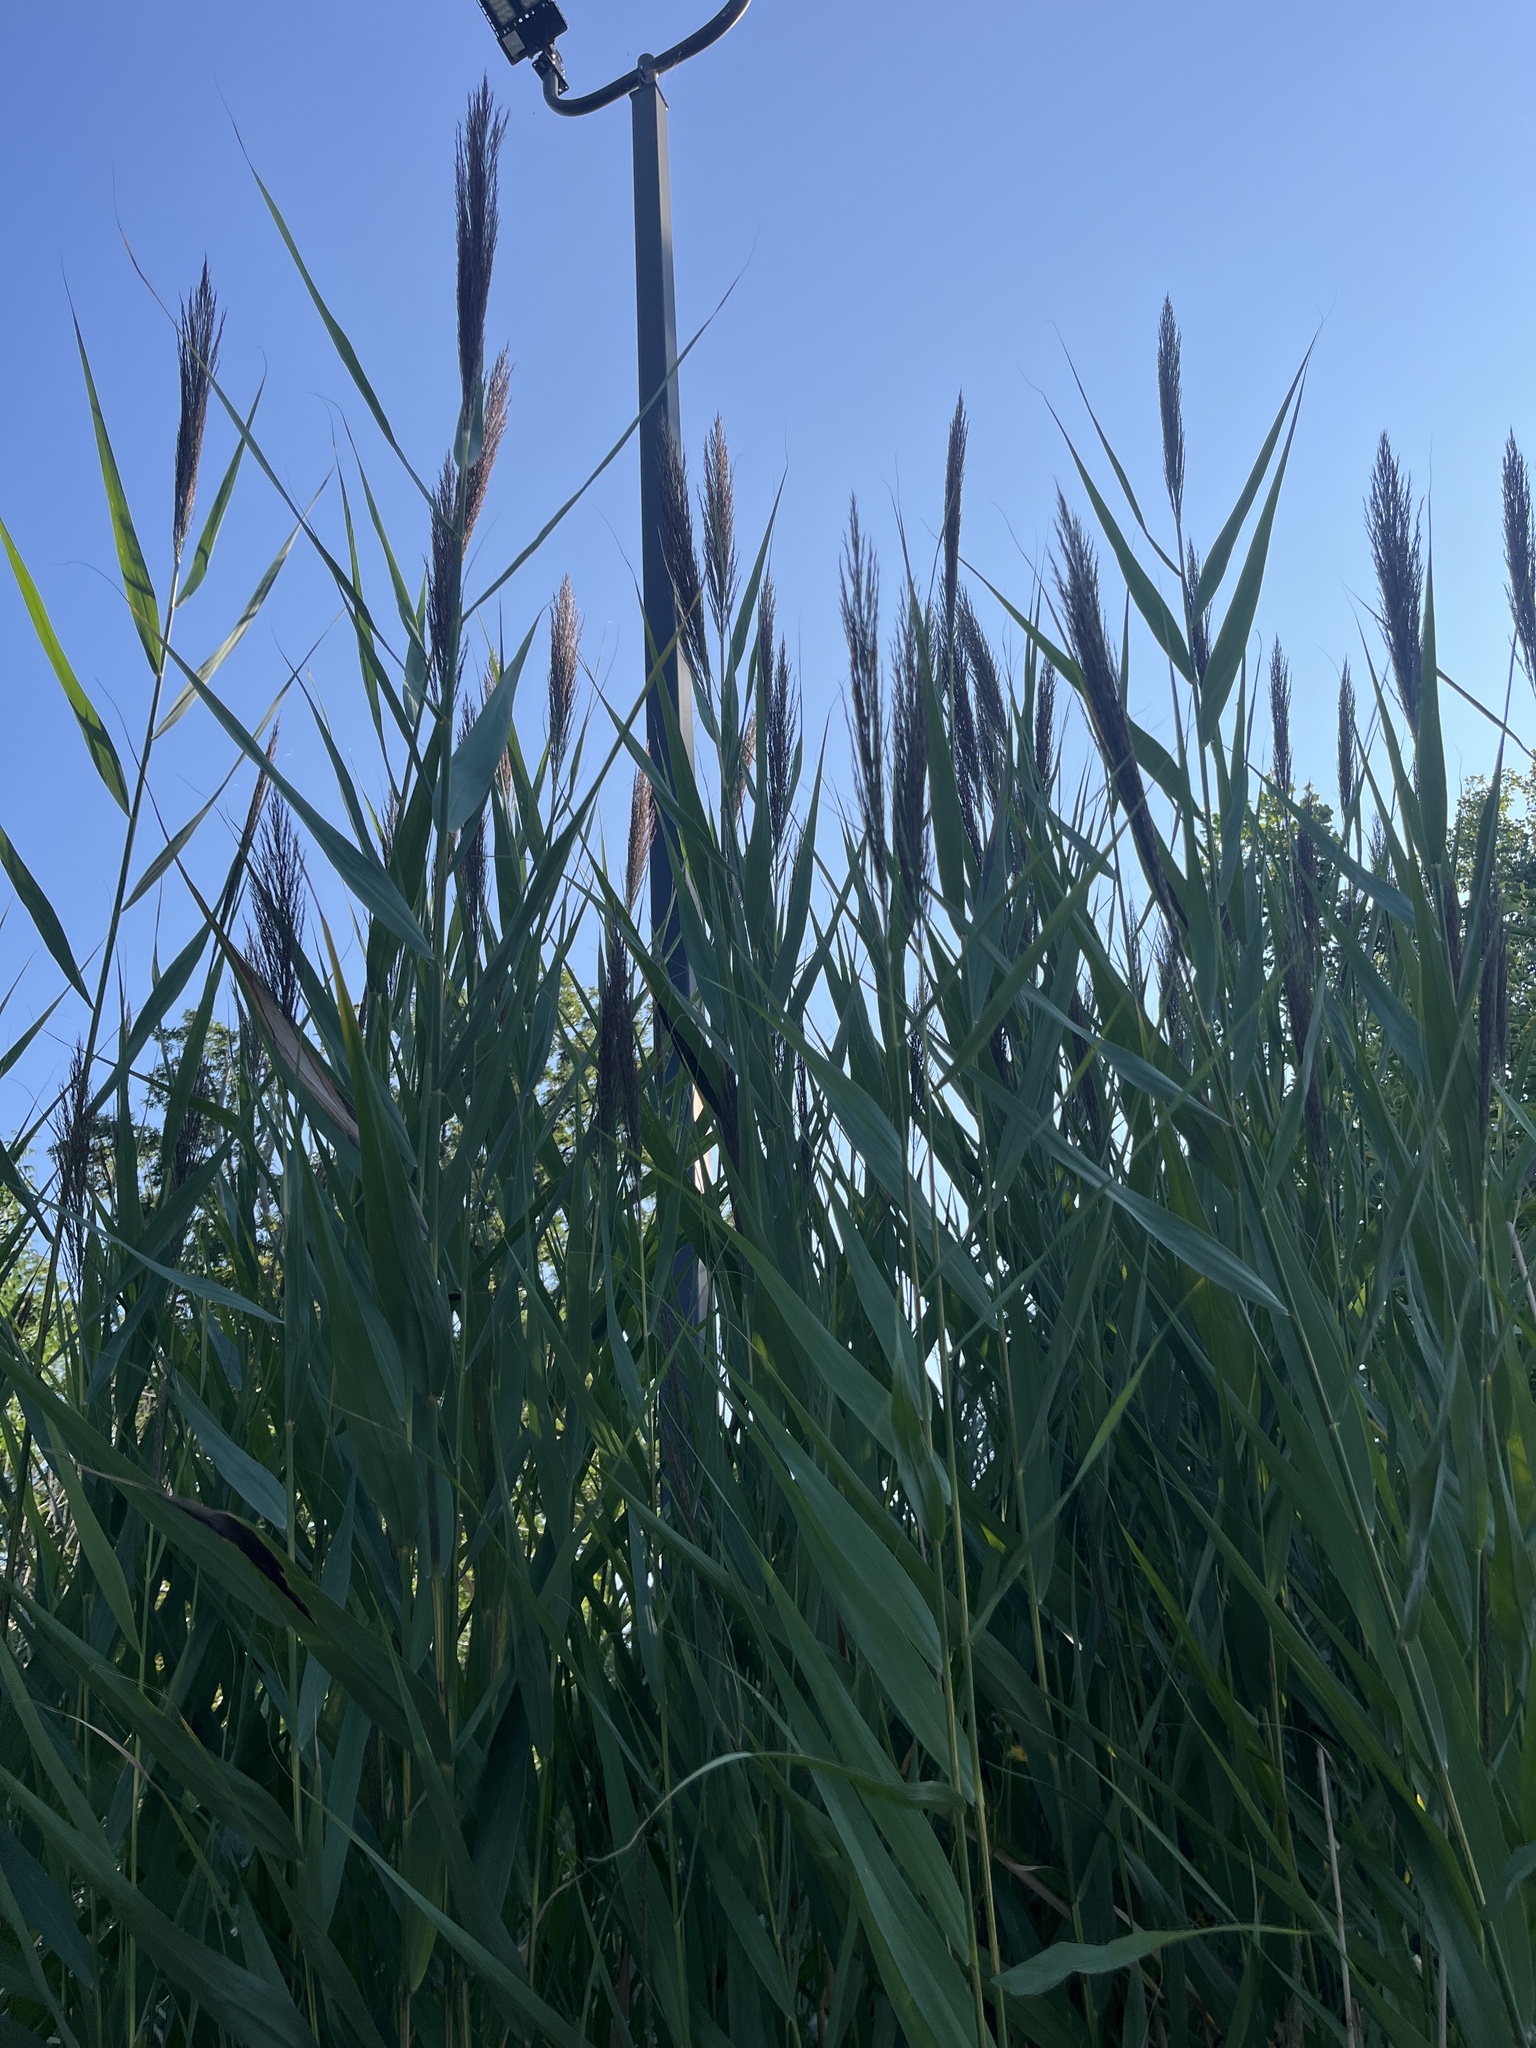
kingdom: Plantae
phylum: Tracheophyta
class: Liliopsida
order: Poales
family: Poaceae
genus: Phragmites
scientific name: Phragmites australis
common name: Common reed
